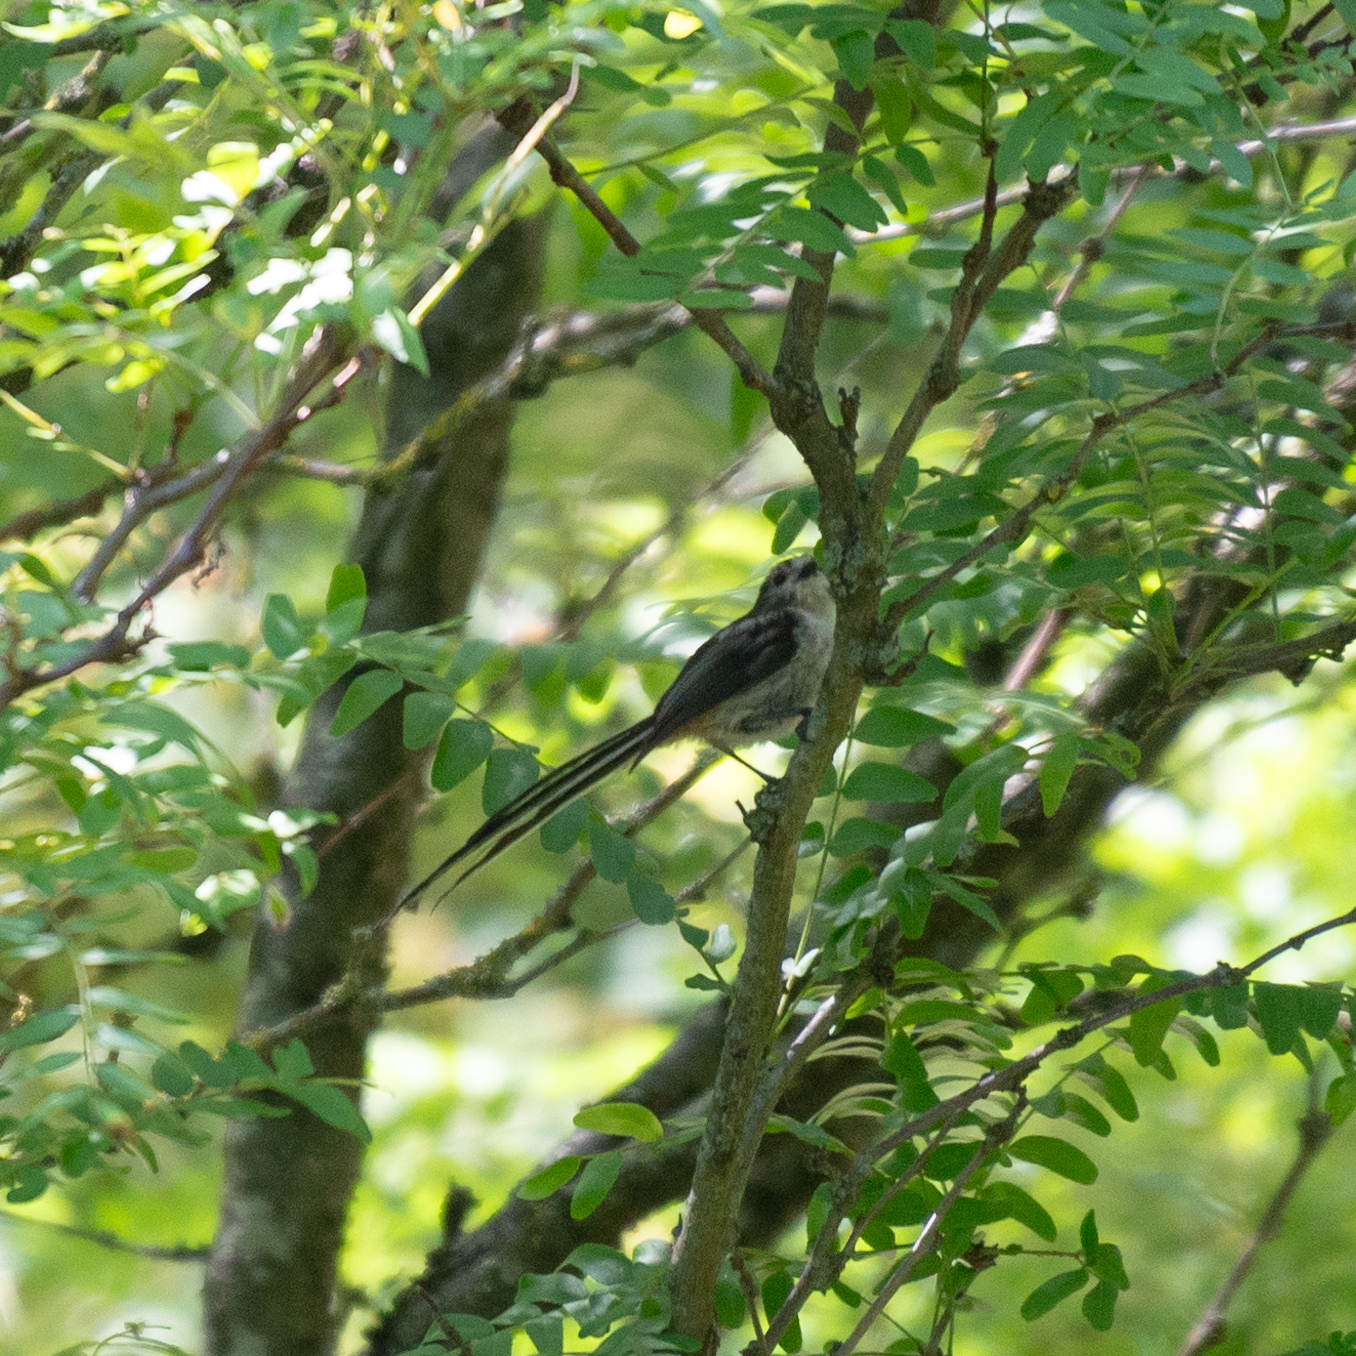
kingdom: Animalia
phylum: Chordata
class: Aves
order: Passeriformes
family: Aegithalidae
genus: Aegithalos
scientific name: Aegithalos caudatus
